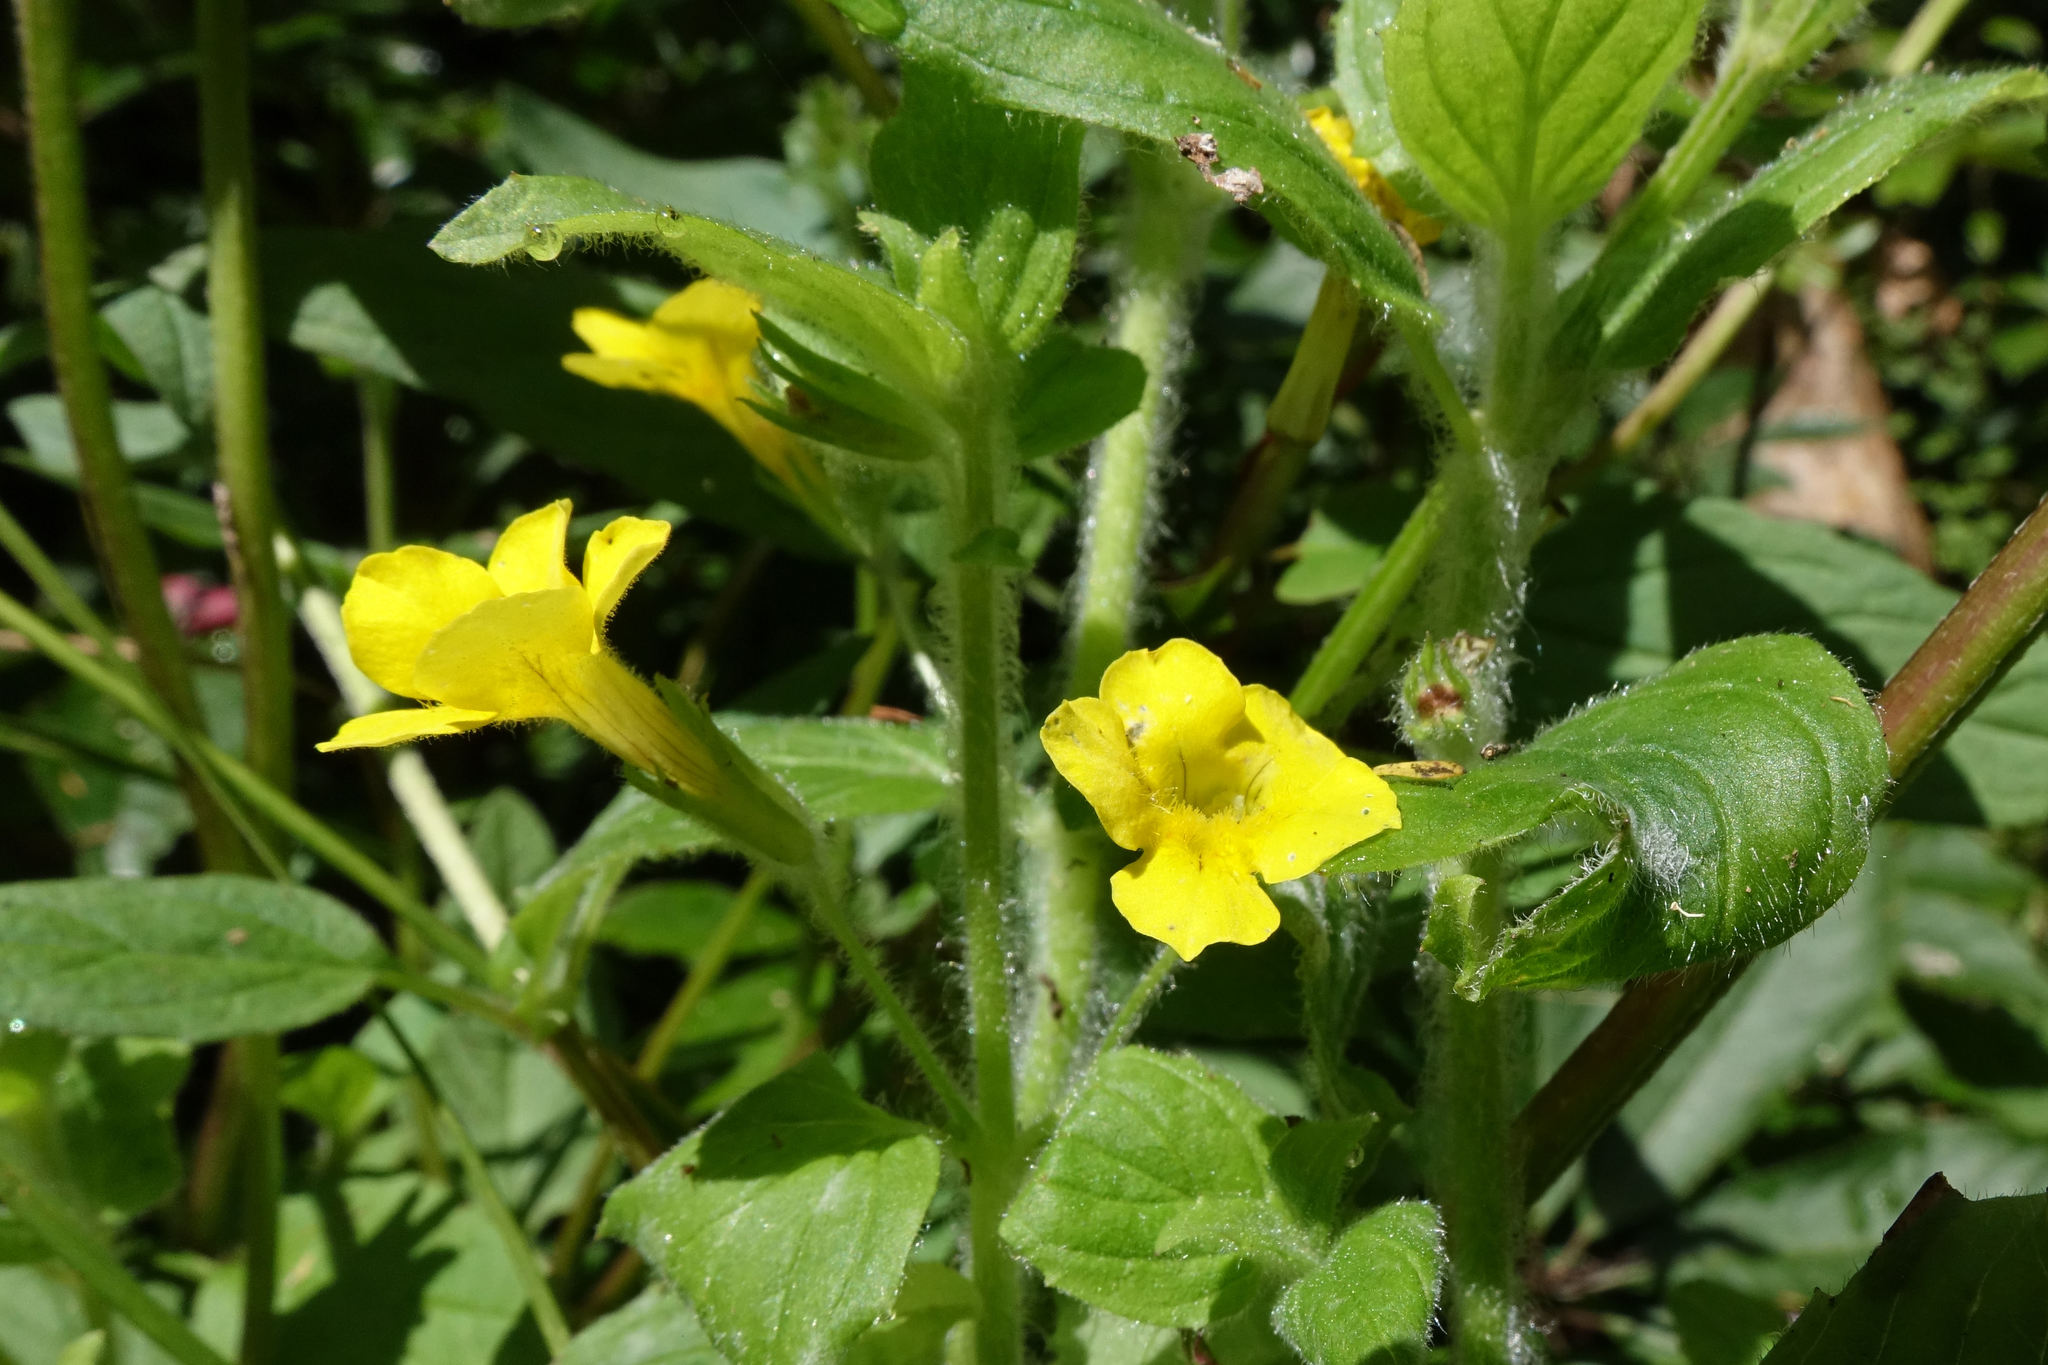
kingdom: Plantae
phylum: Tracheophyta
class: Magnoliopsida
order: Lamiales
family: Phrymaceae
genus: Erythranthe
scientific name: Erythranthe moschata
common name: Muskflower
